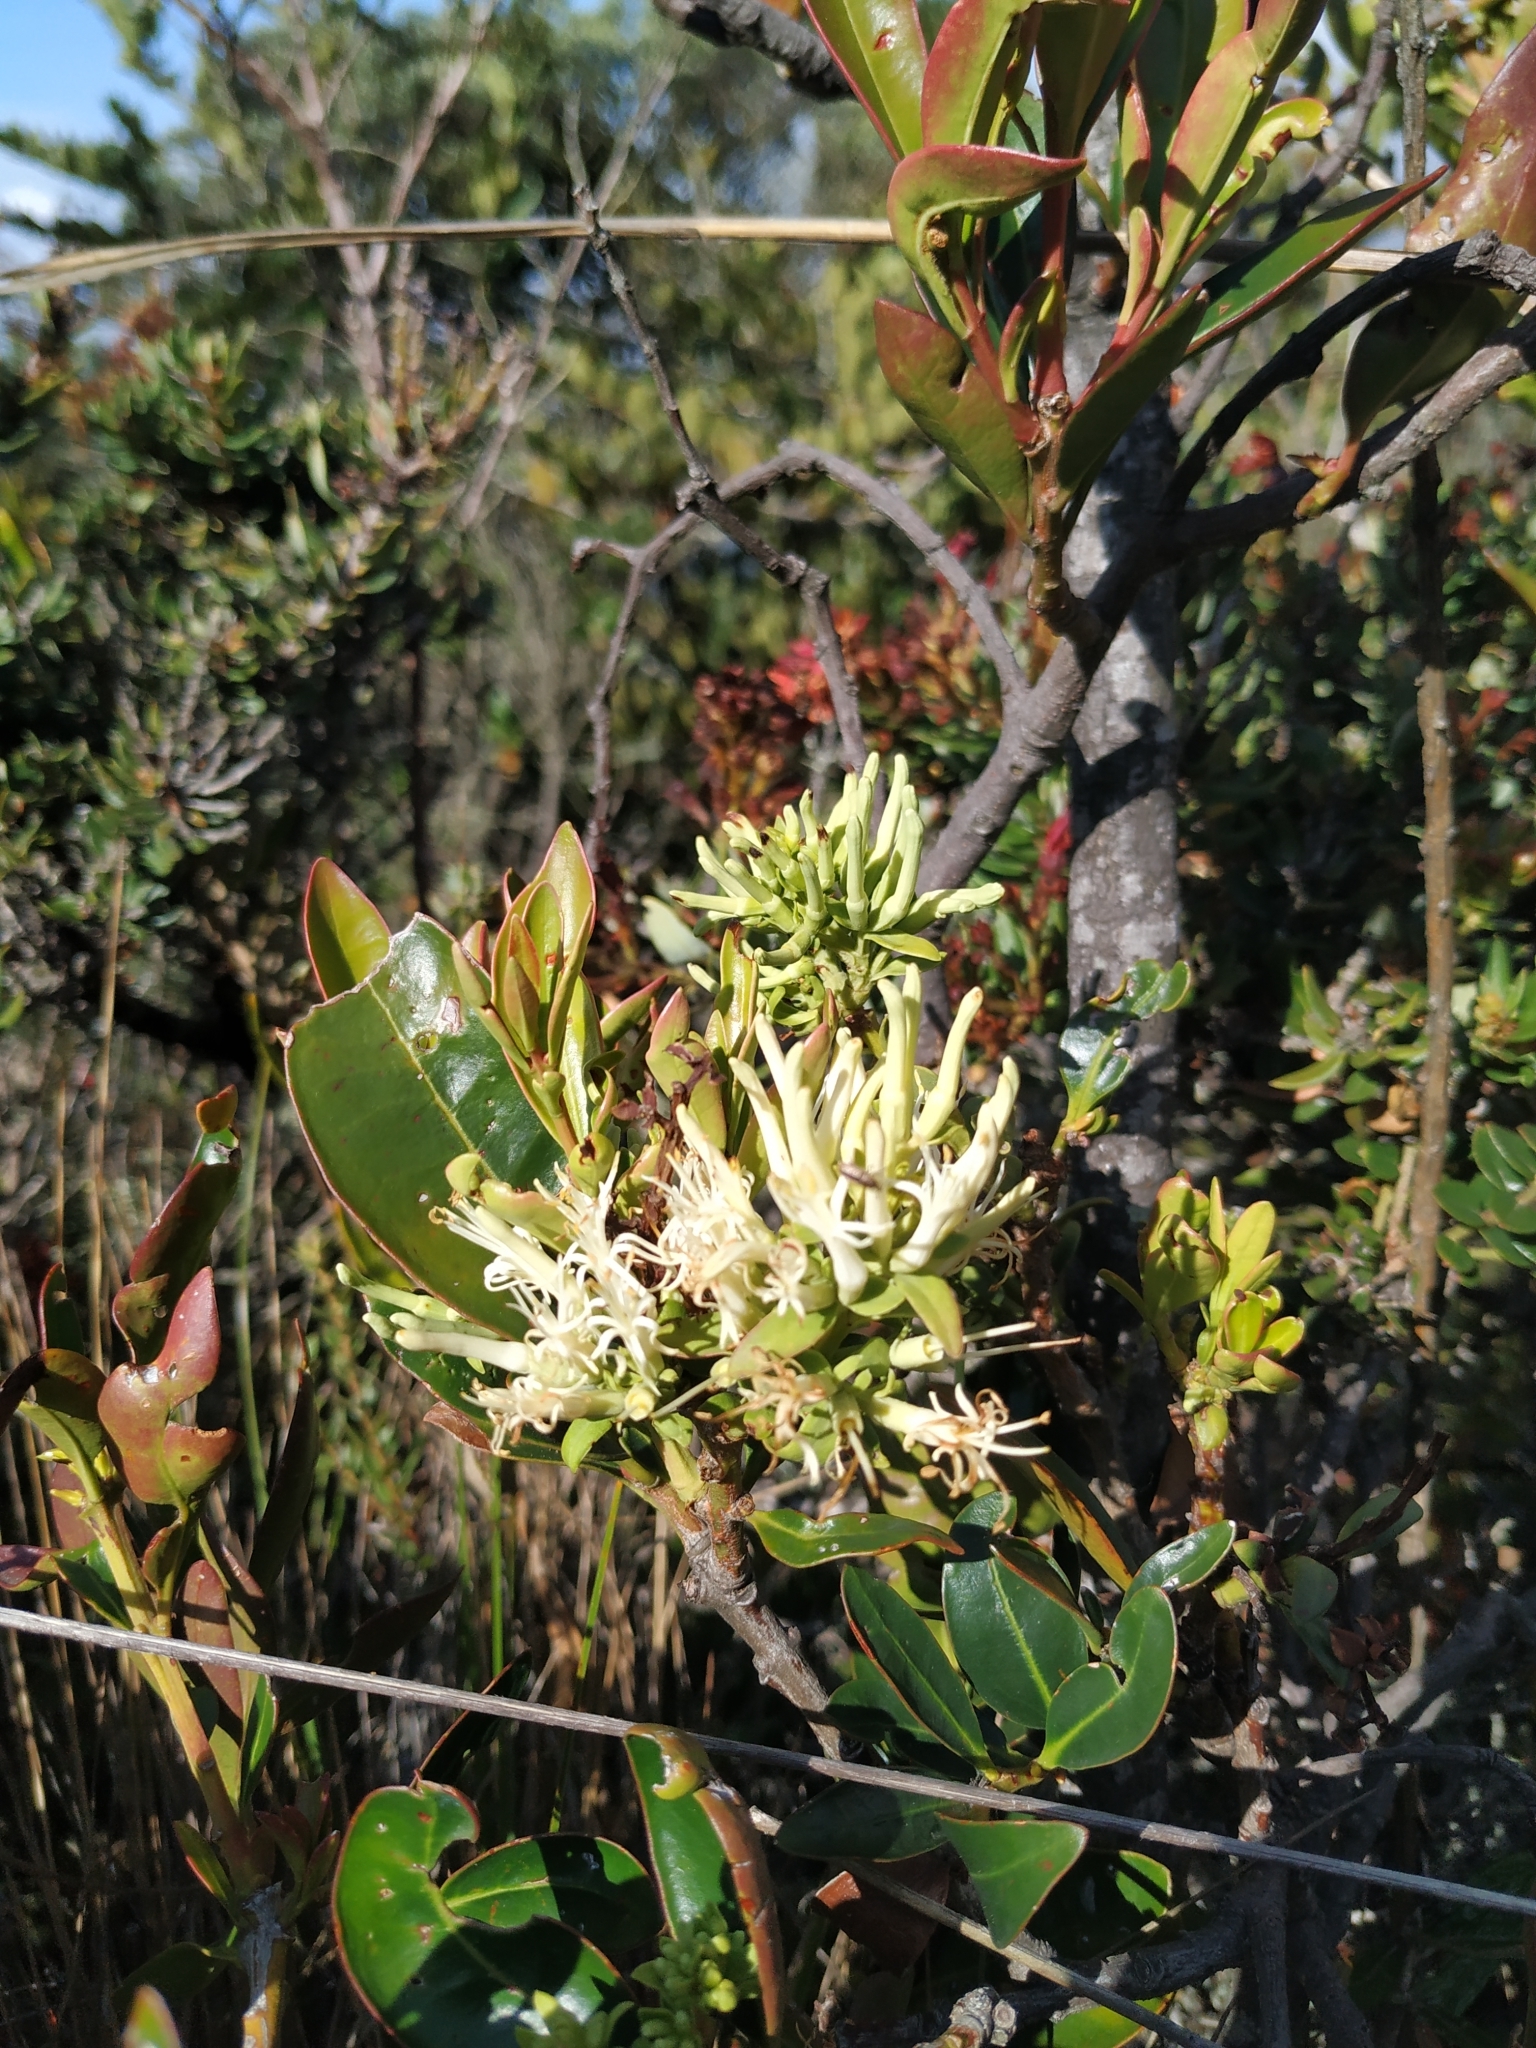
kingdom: Plantae
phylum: Tracheophyta
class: Magnoliopsida
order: Santalales
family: Loranthaceae
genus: Gaiadendron
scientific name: Gaiadendron punctatum
